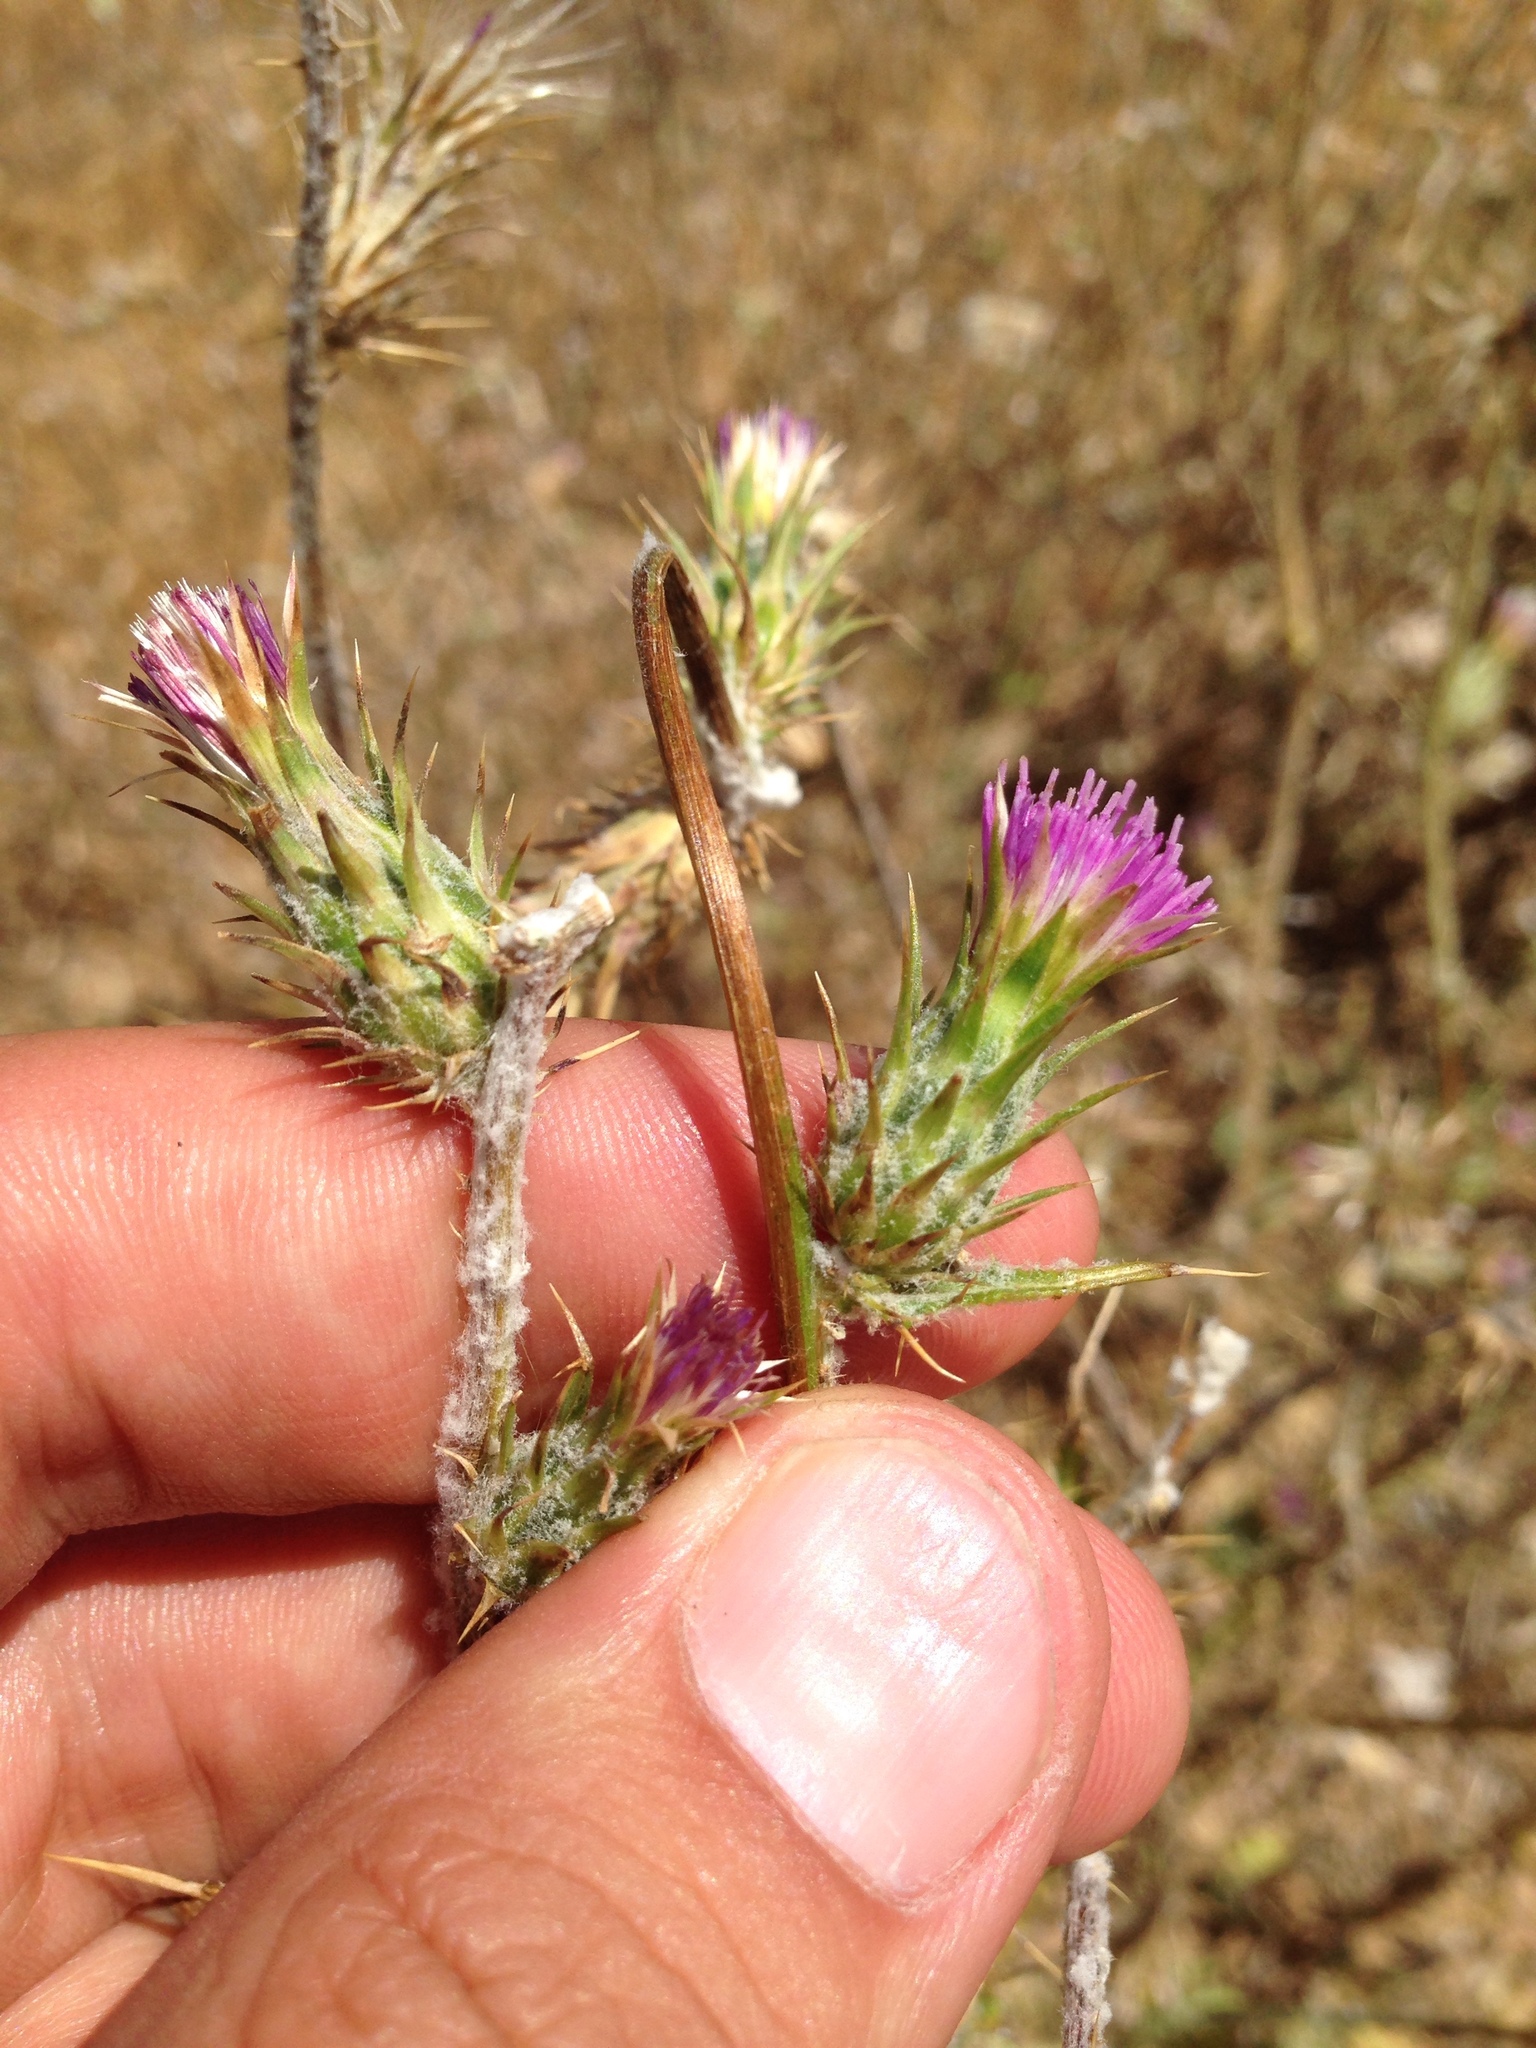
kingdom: Plantae
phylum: Tracheophyta
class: Magnoliopsida
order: Asterales
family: Asteraceae
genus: Carduus
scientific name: Carduus pycnocephalus
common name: Plymouth thistle
